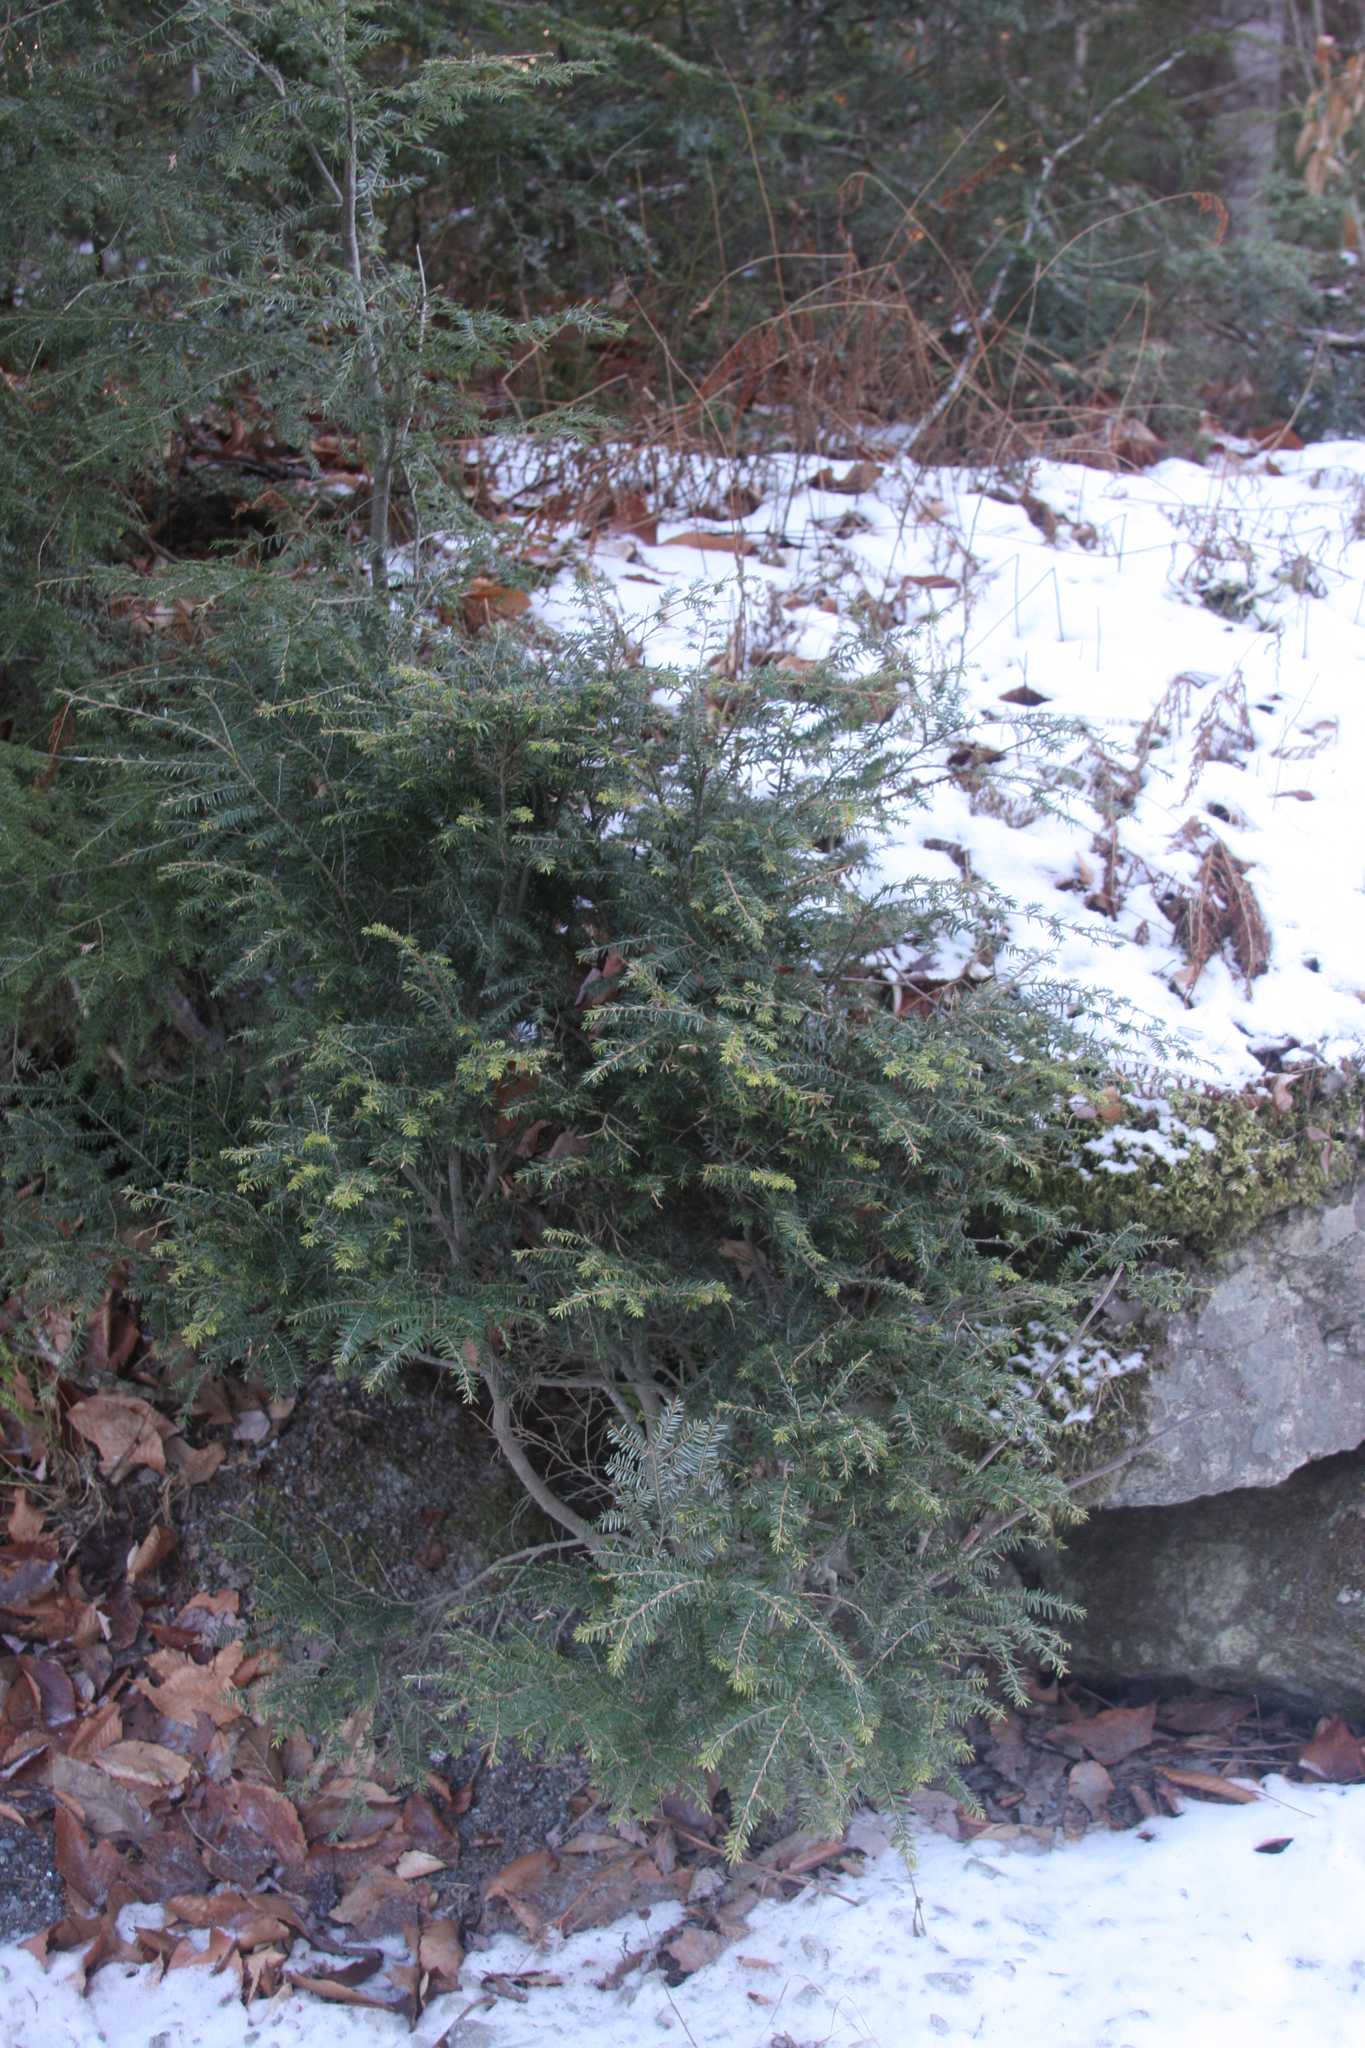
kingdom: Plantae
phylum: Tracheophyta
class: Pinopsida
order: Pinales
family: Pinaceae
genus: Tsuga
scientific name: Tsuga canadensis
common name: Eastern hemlock
